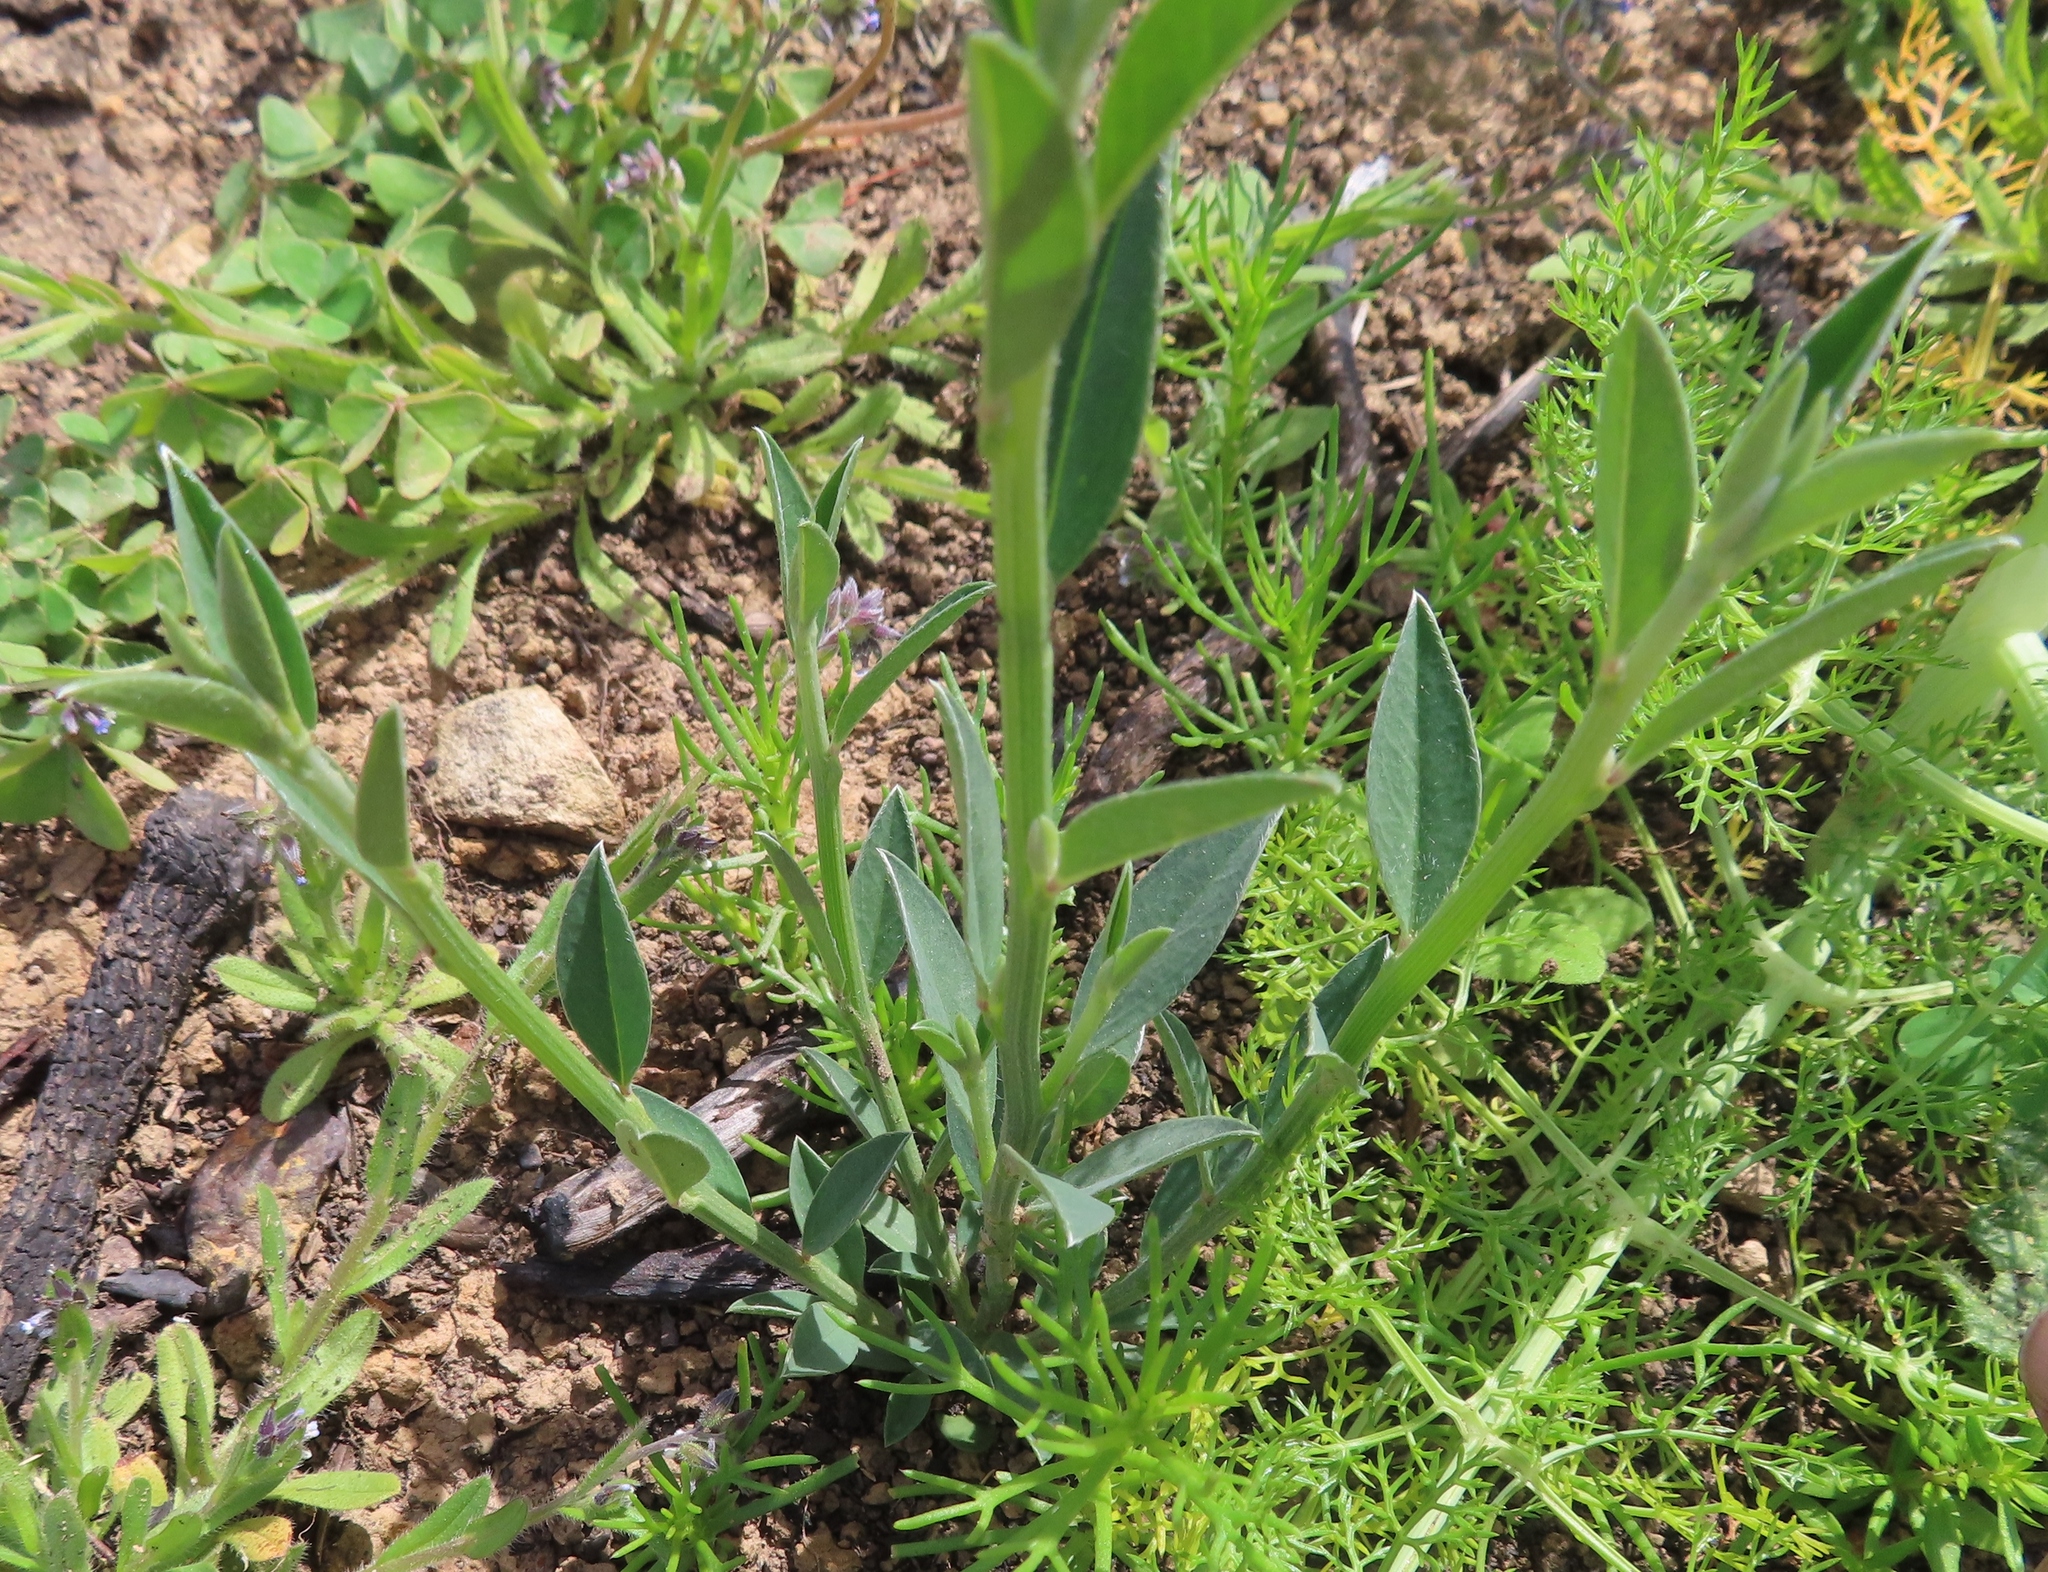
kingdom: Plantae
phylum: Tracheophyta
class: Magnoliopsida
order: Fabales
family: Fabaceae
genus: Psoralea
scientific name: Psoralea alata
